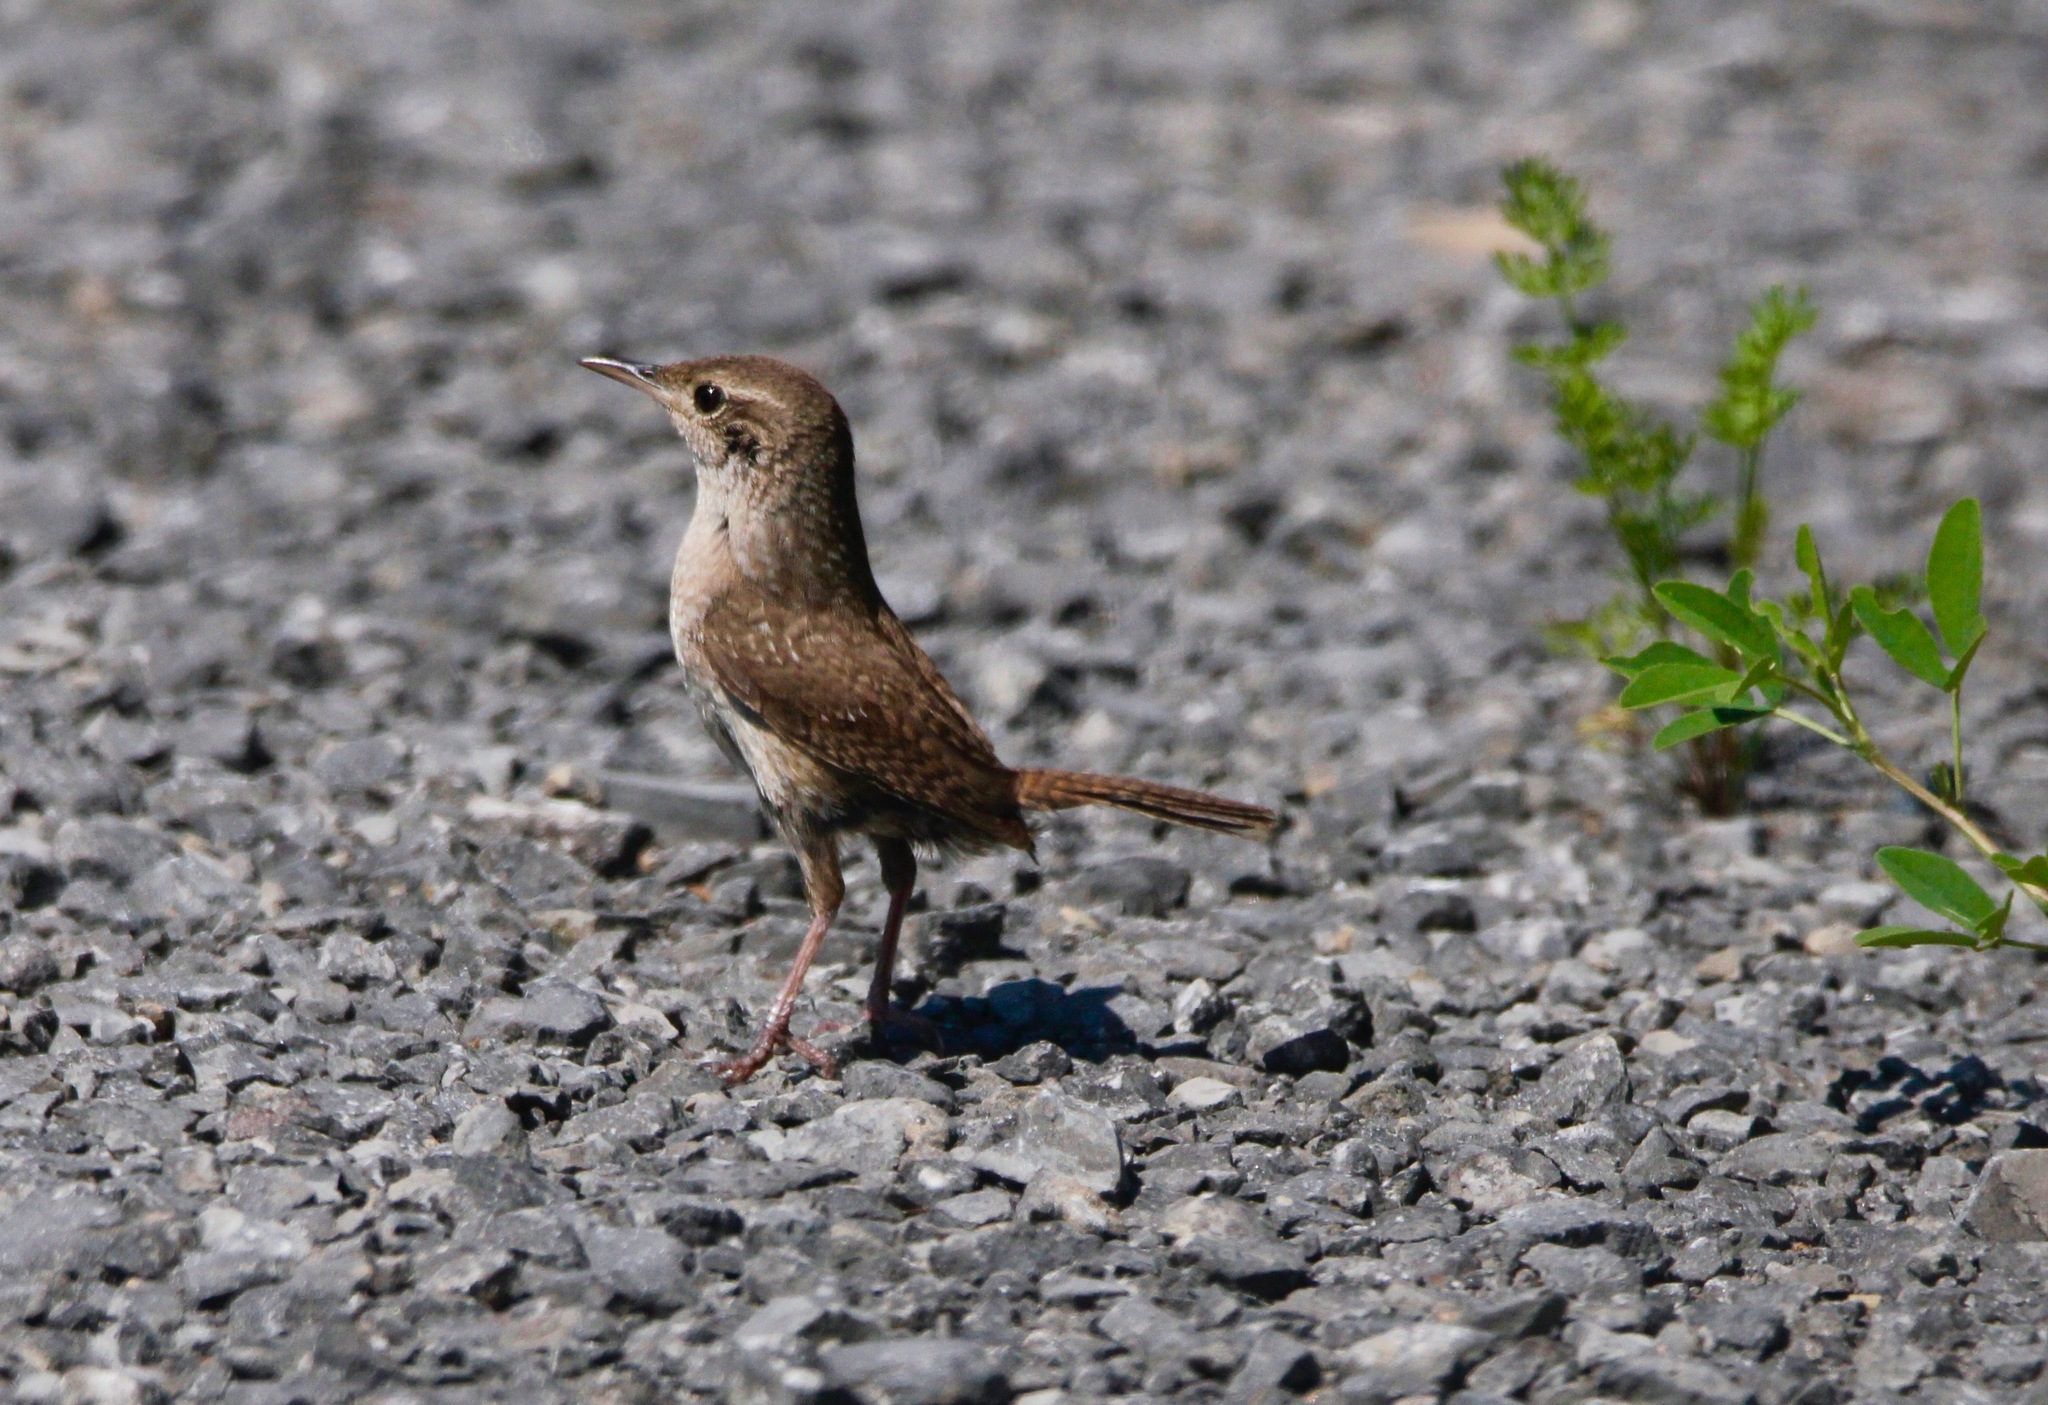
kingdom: Animalia
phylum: Chordata
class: Aves
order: Passeriformes
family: Troglodytidae
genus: Troglodytes
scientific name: Troglodytes hiemalis
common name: Winter wren
